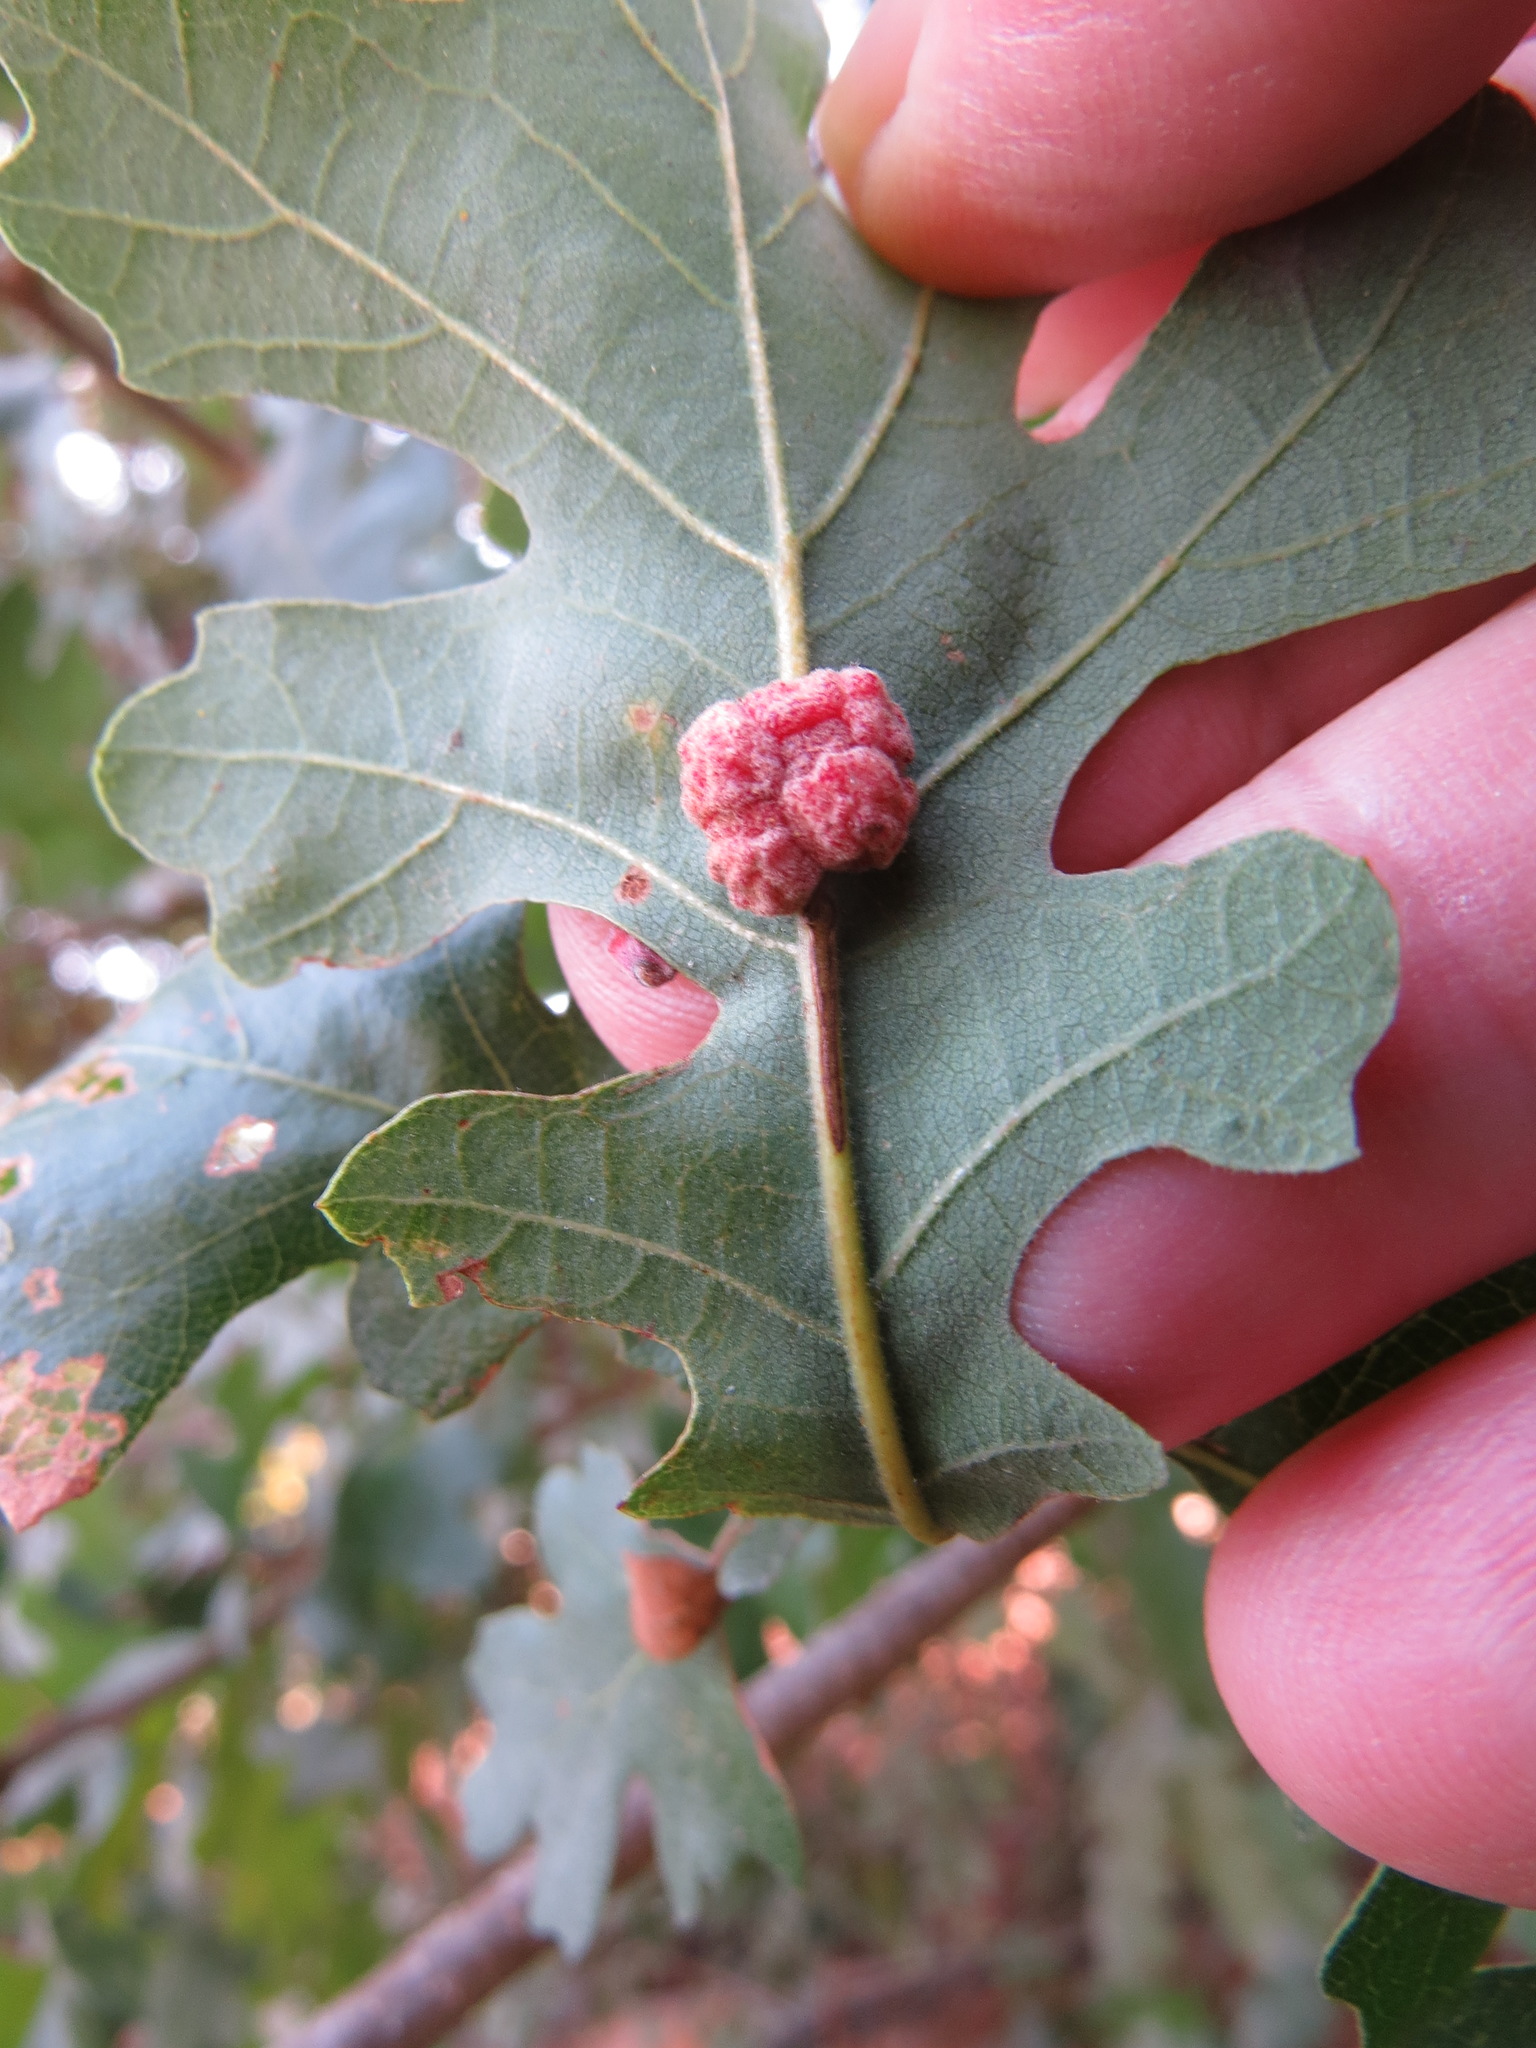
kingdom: Animalia
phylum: Arthropoda
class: Insecta
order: Hymenoptera
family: Cynipidae
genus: Andricus
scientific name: Andricus
